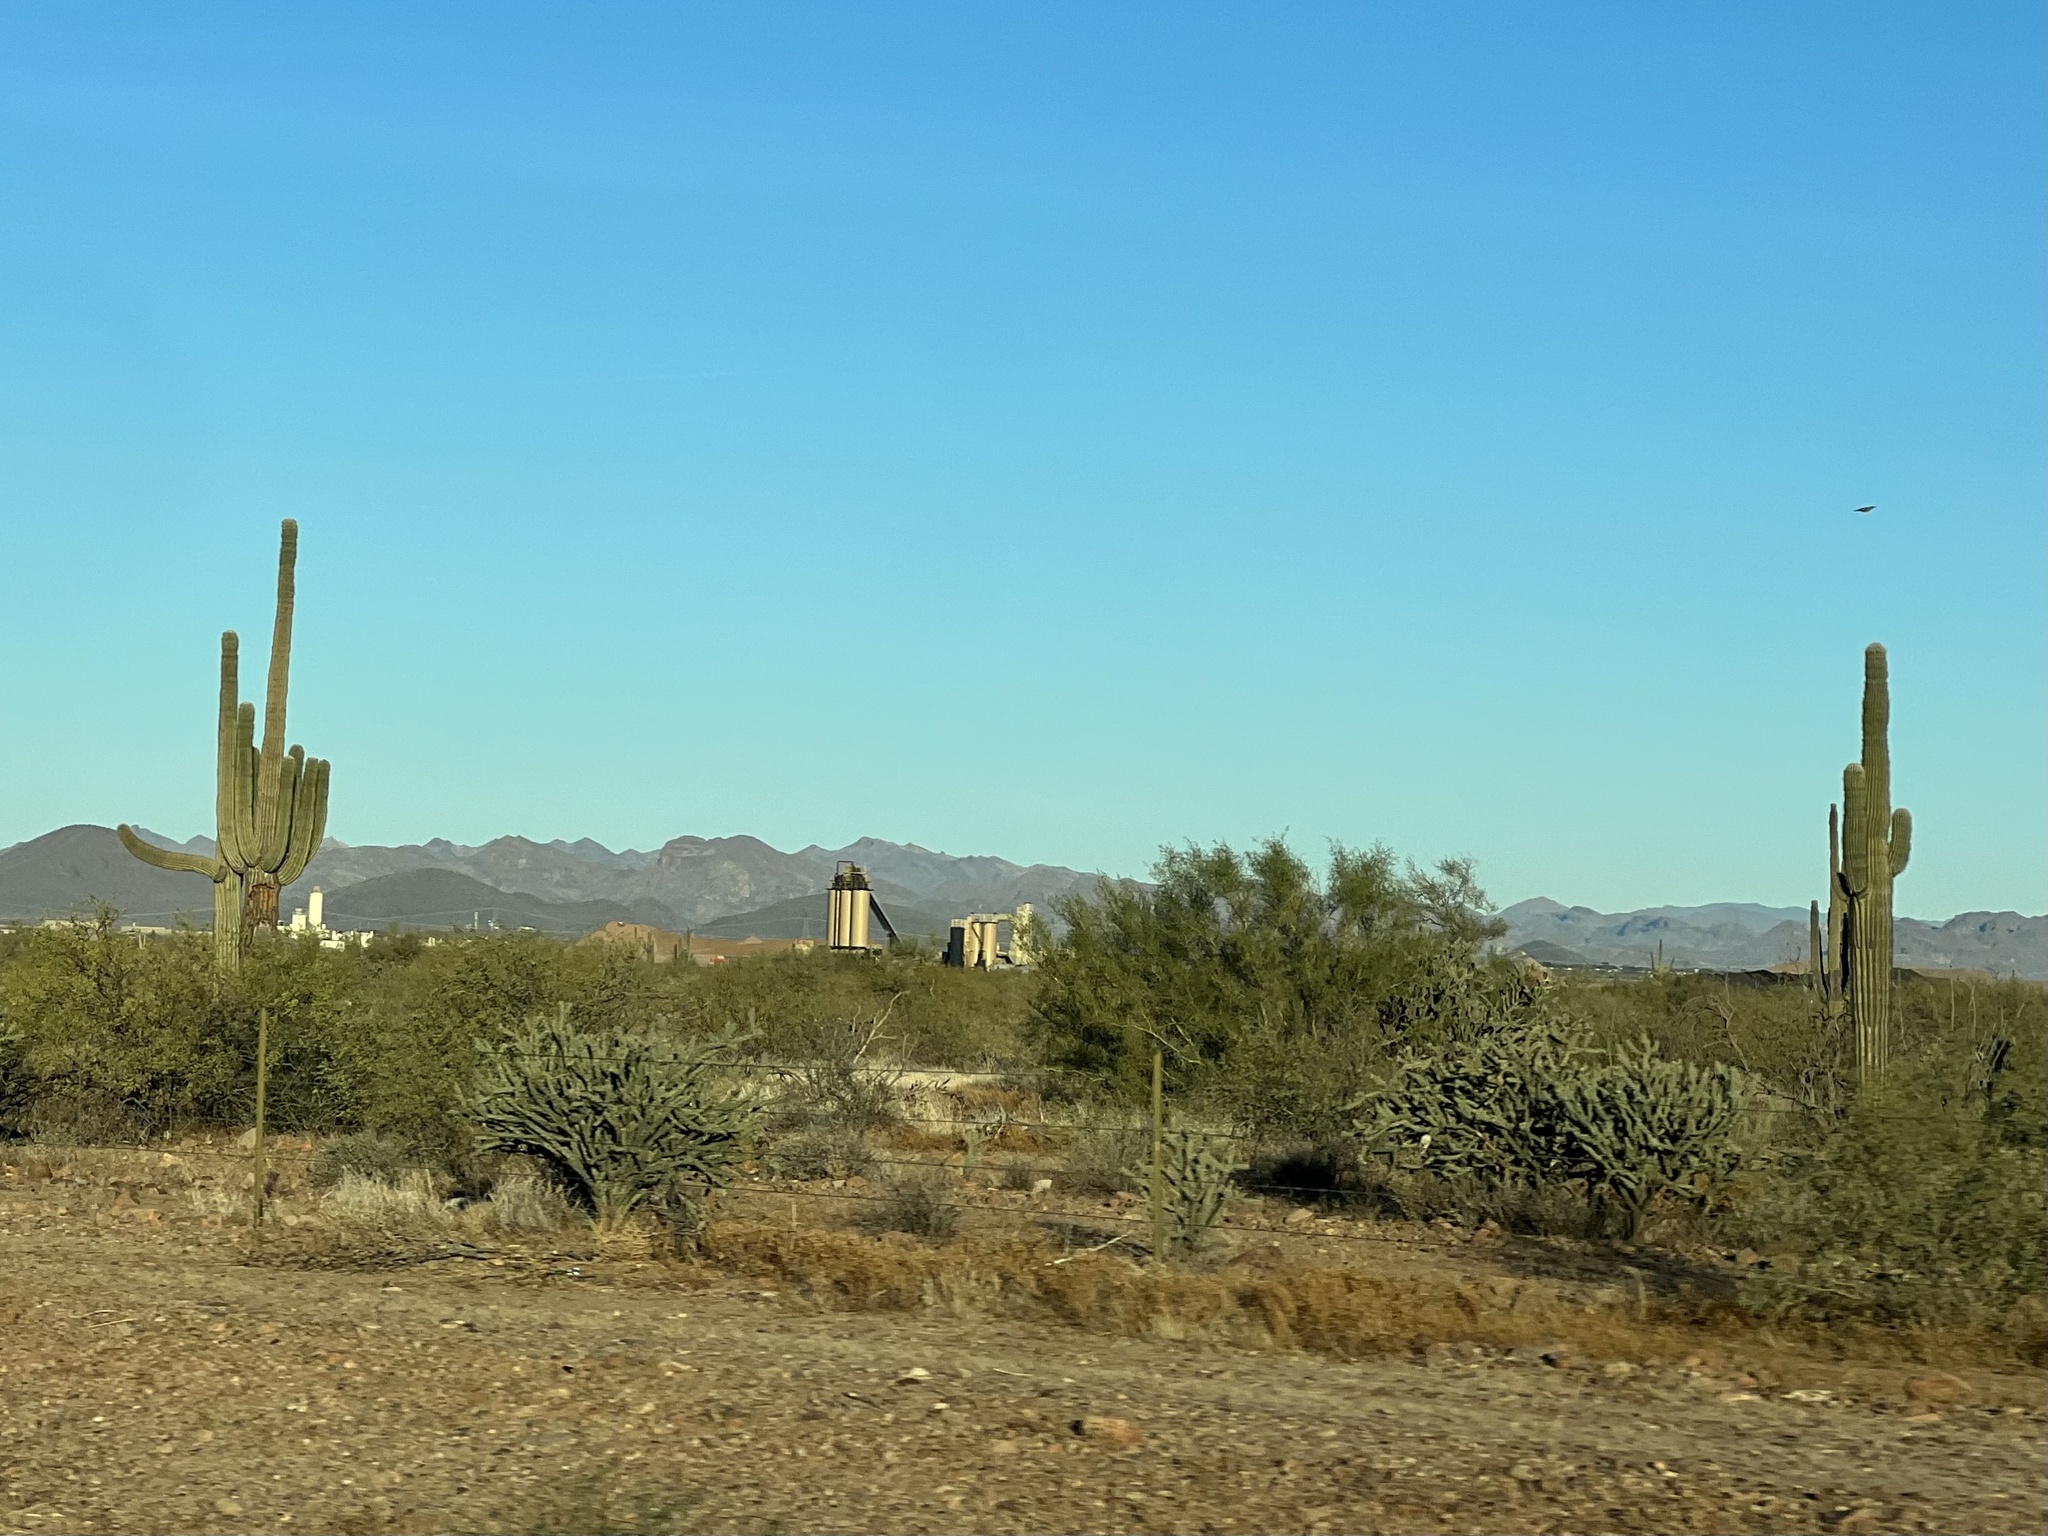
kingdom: Plantae
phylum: Tracheophyta
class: Magnoliopsida
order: Caryophyllales
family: Cactaceae
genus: Carnegiea
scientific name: Carnegiea gigantea
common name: Saguaro
